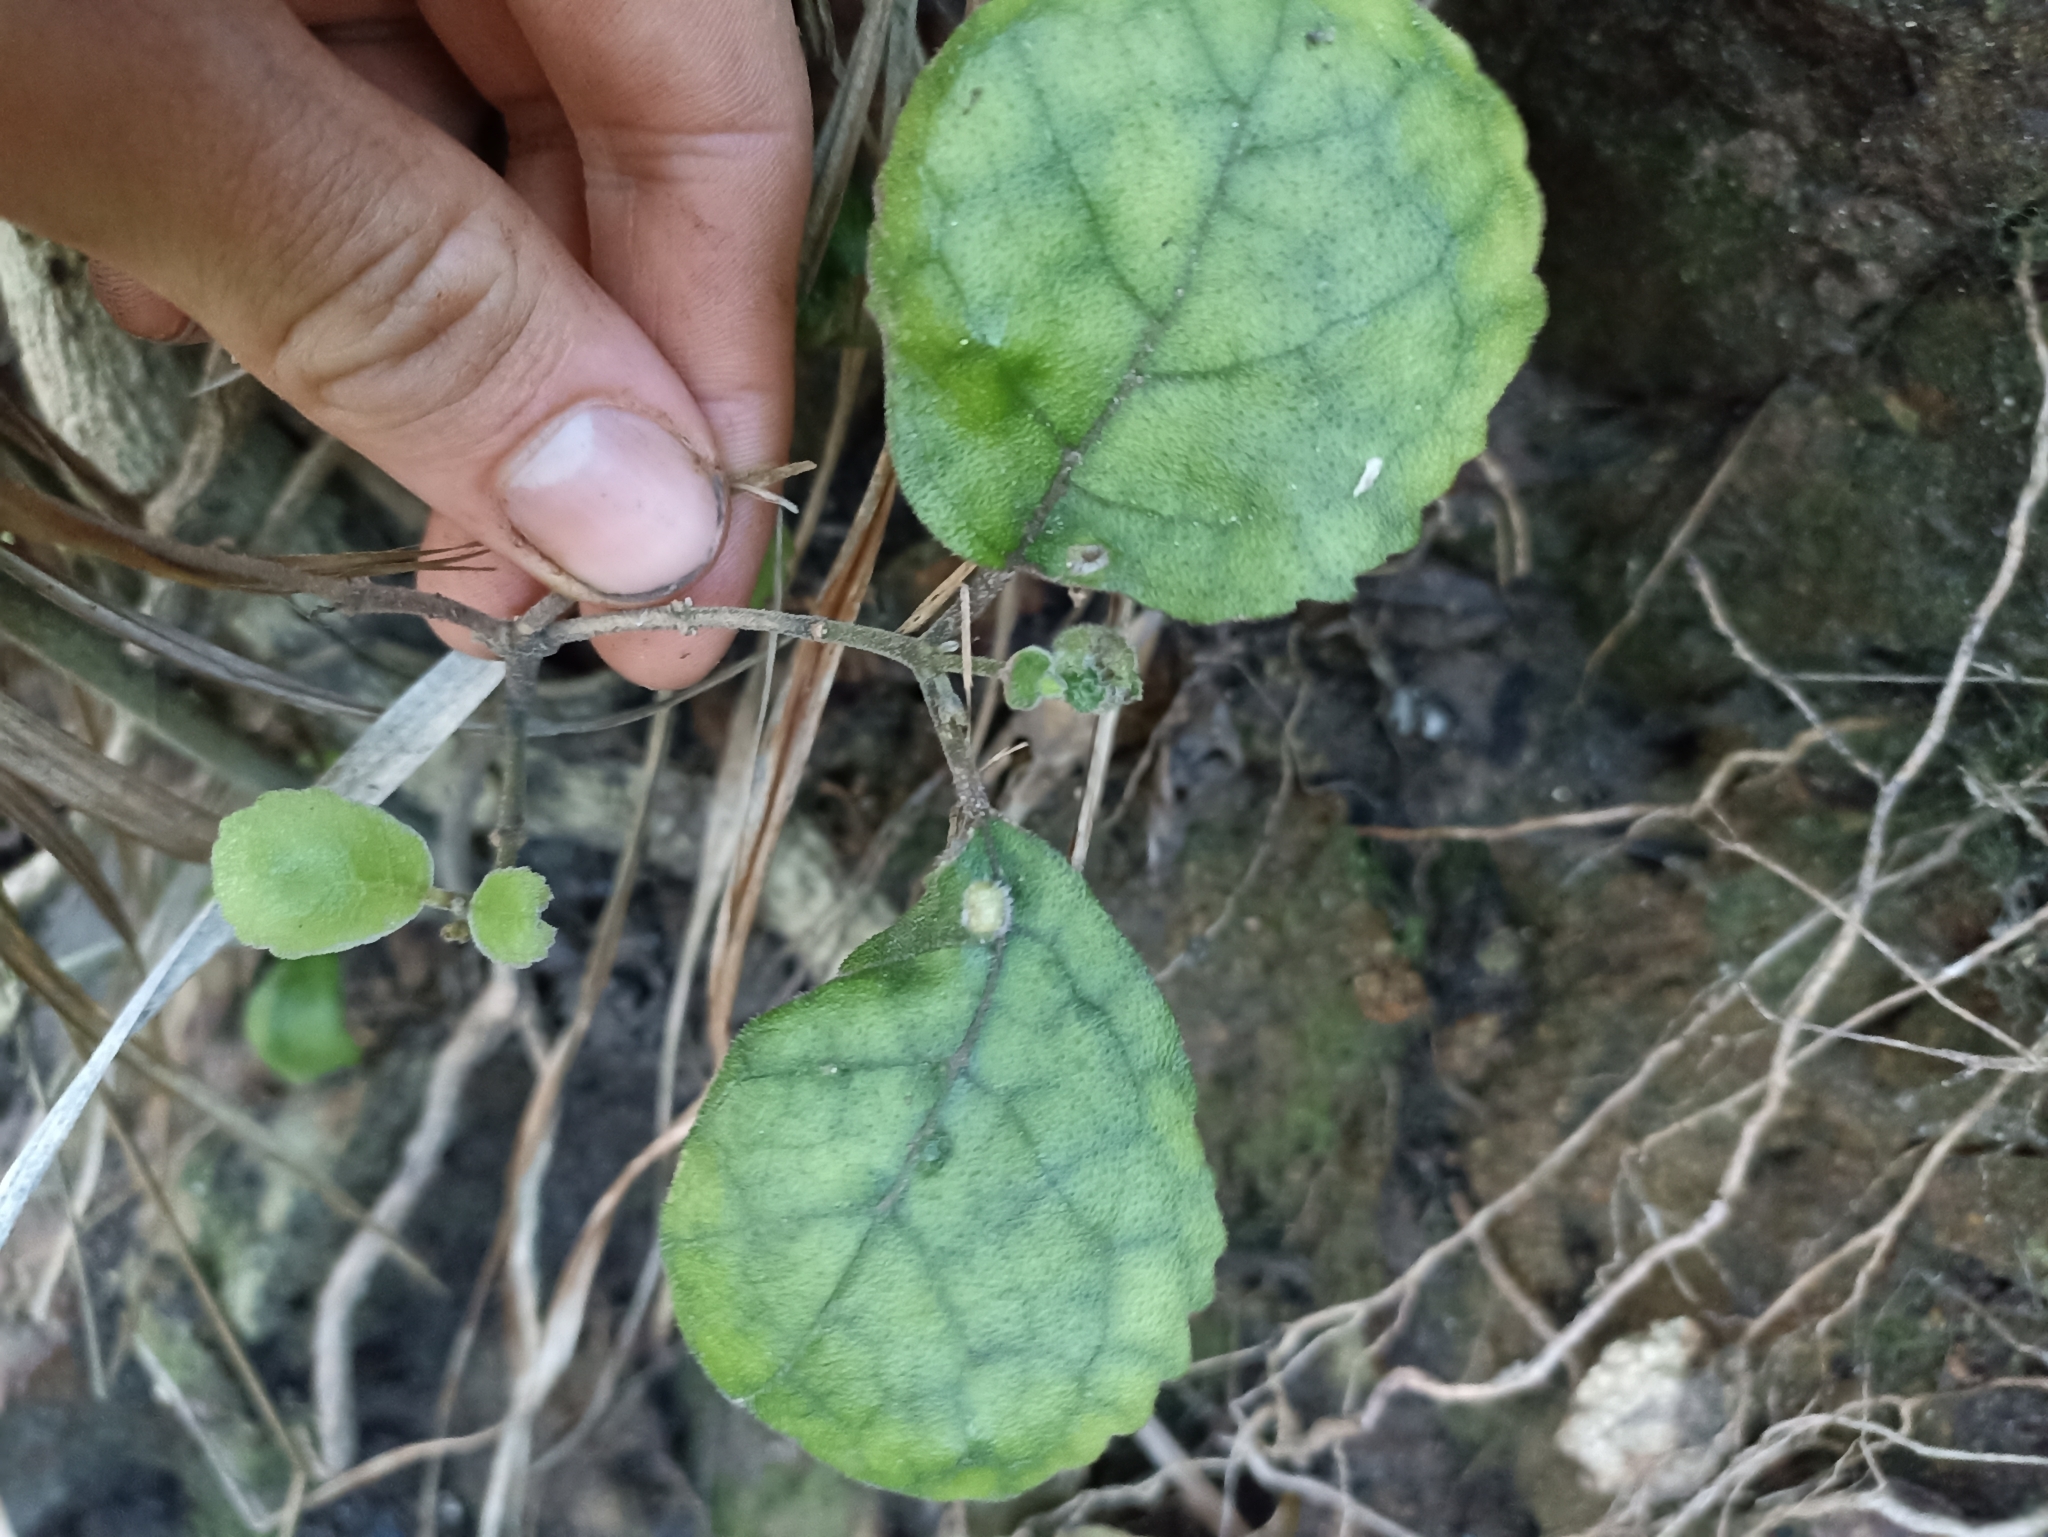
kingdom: Plantae
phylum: Tracheophyta
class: Magnoliopsida
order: Lamiales
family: Gesneriaceae
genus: Rhabdothamnus
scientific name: Rhabdothamnus solandri
